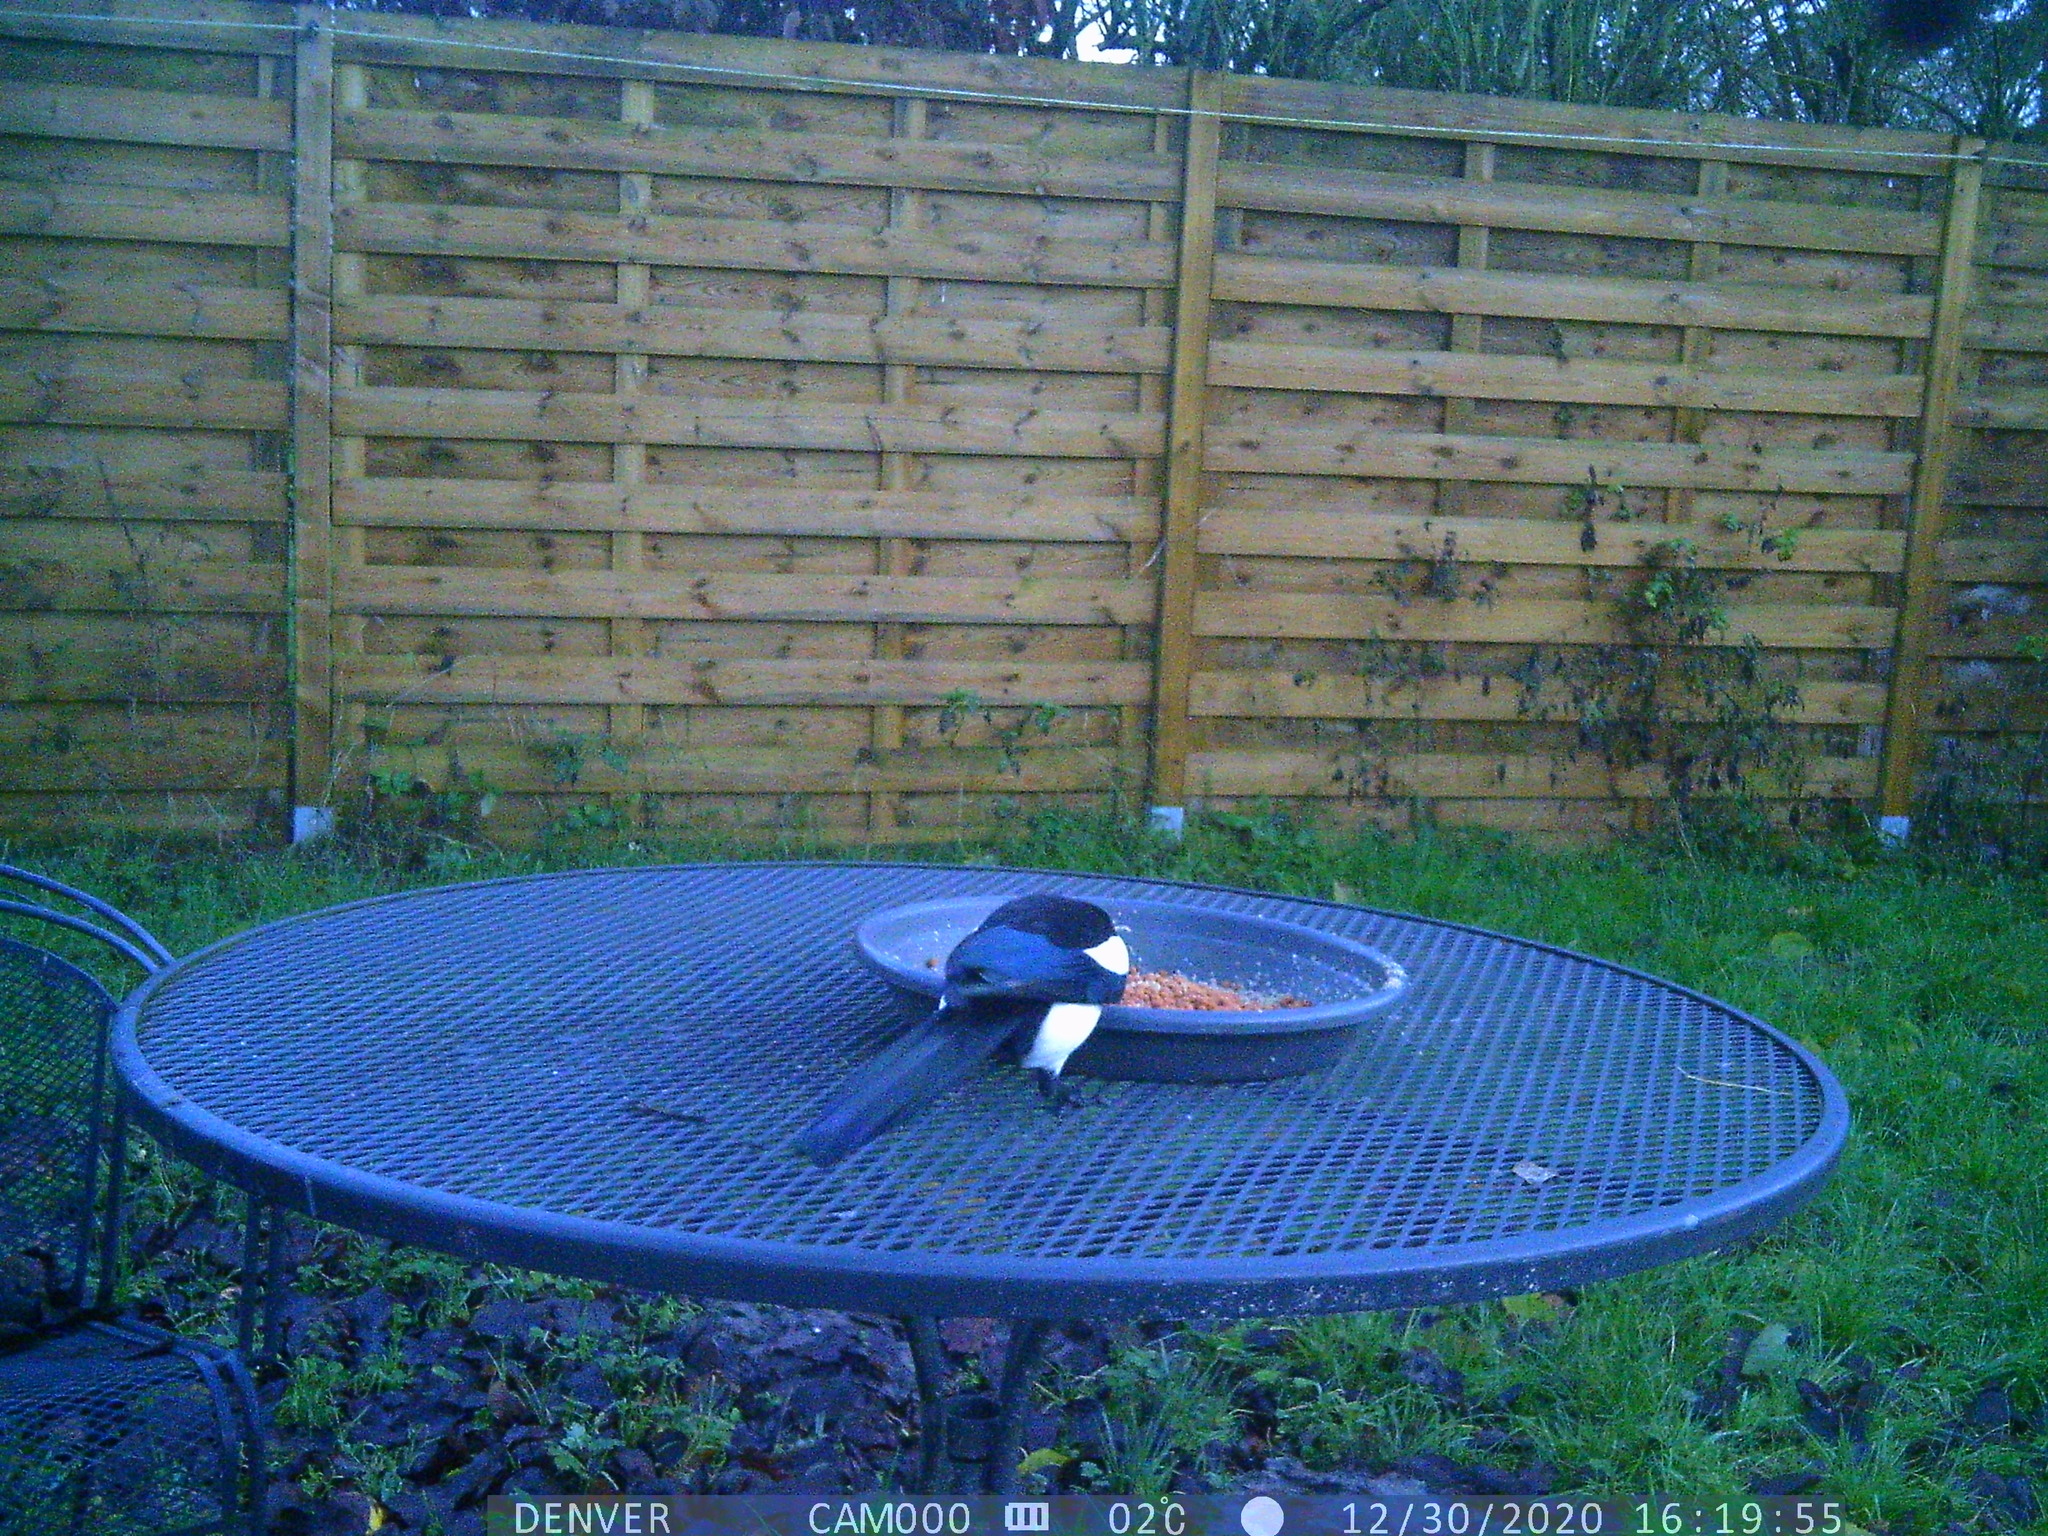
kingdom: Animalia
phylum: Chordata
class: Aves
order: Passeriformes
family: Corvidae
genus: Pica
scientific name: Pica pica
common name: Eurasian magpie
